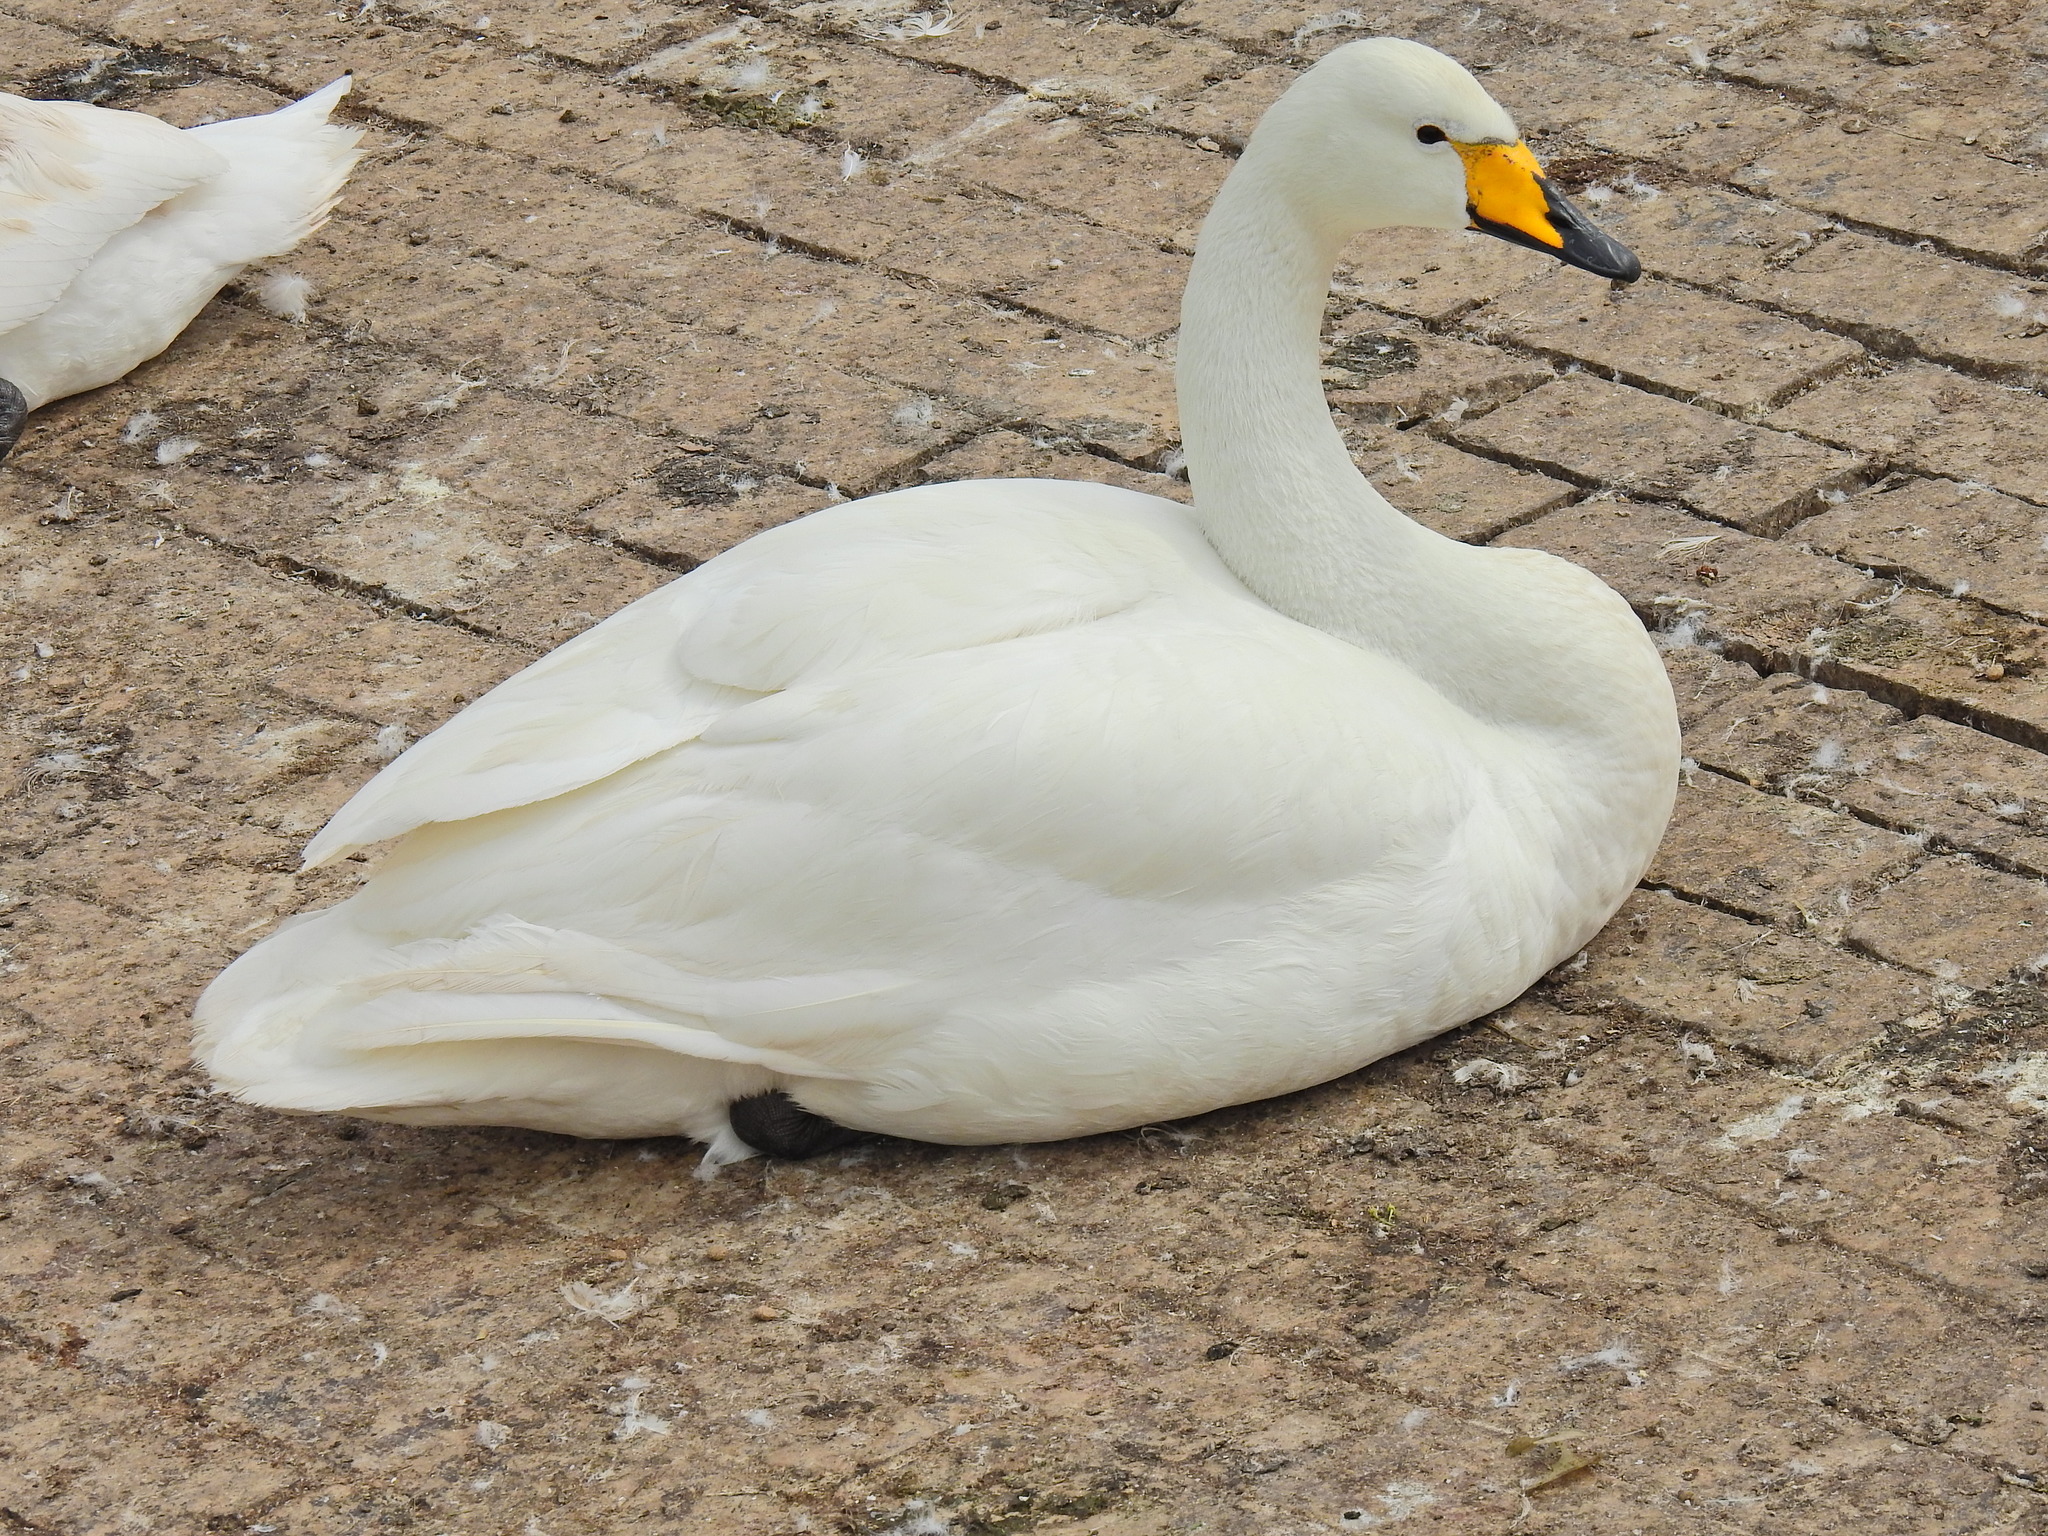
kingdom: Animalia
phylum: Chordata
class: Aves
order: Anseriformes
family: Anatidae
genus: Cygnus
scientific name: Cygnus cygnus
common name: Whooper swan
